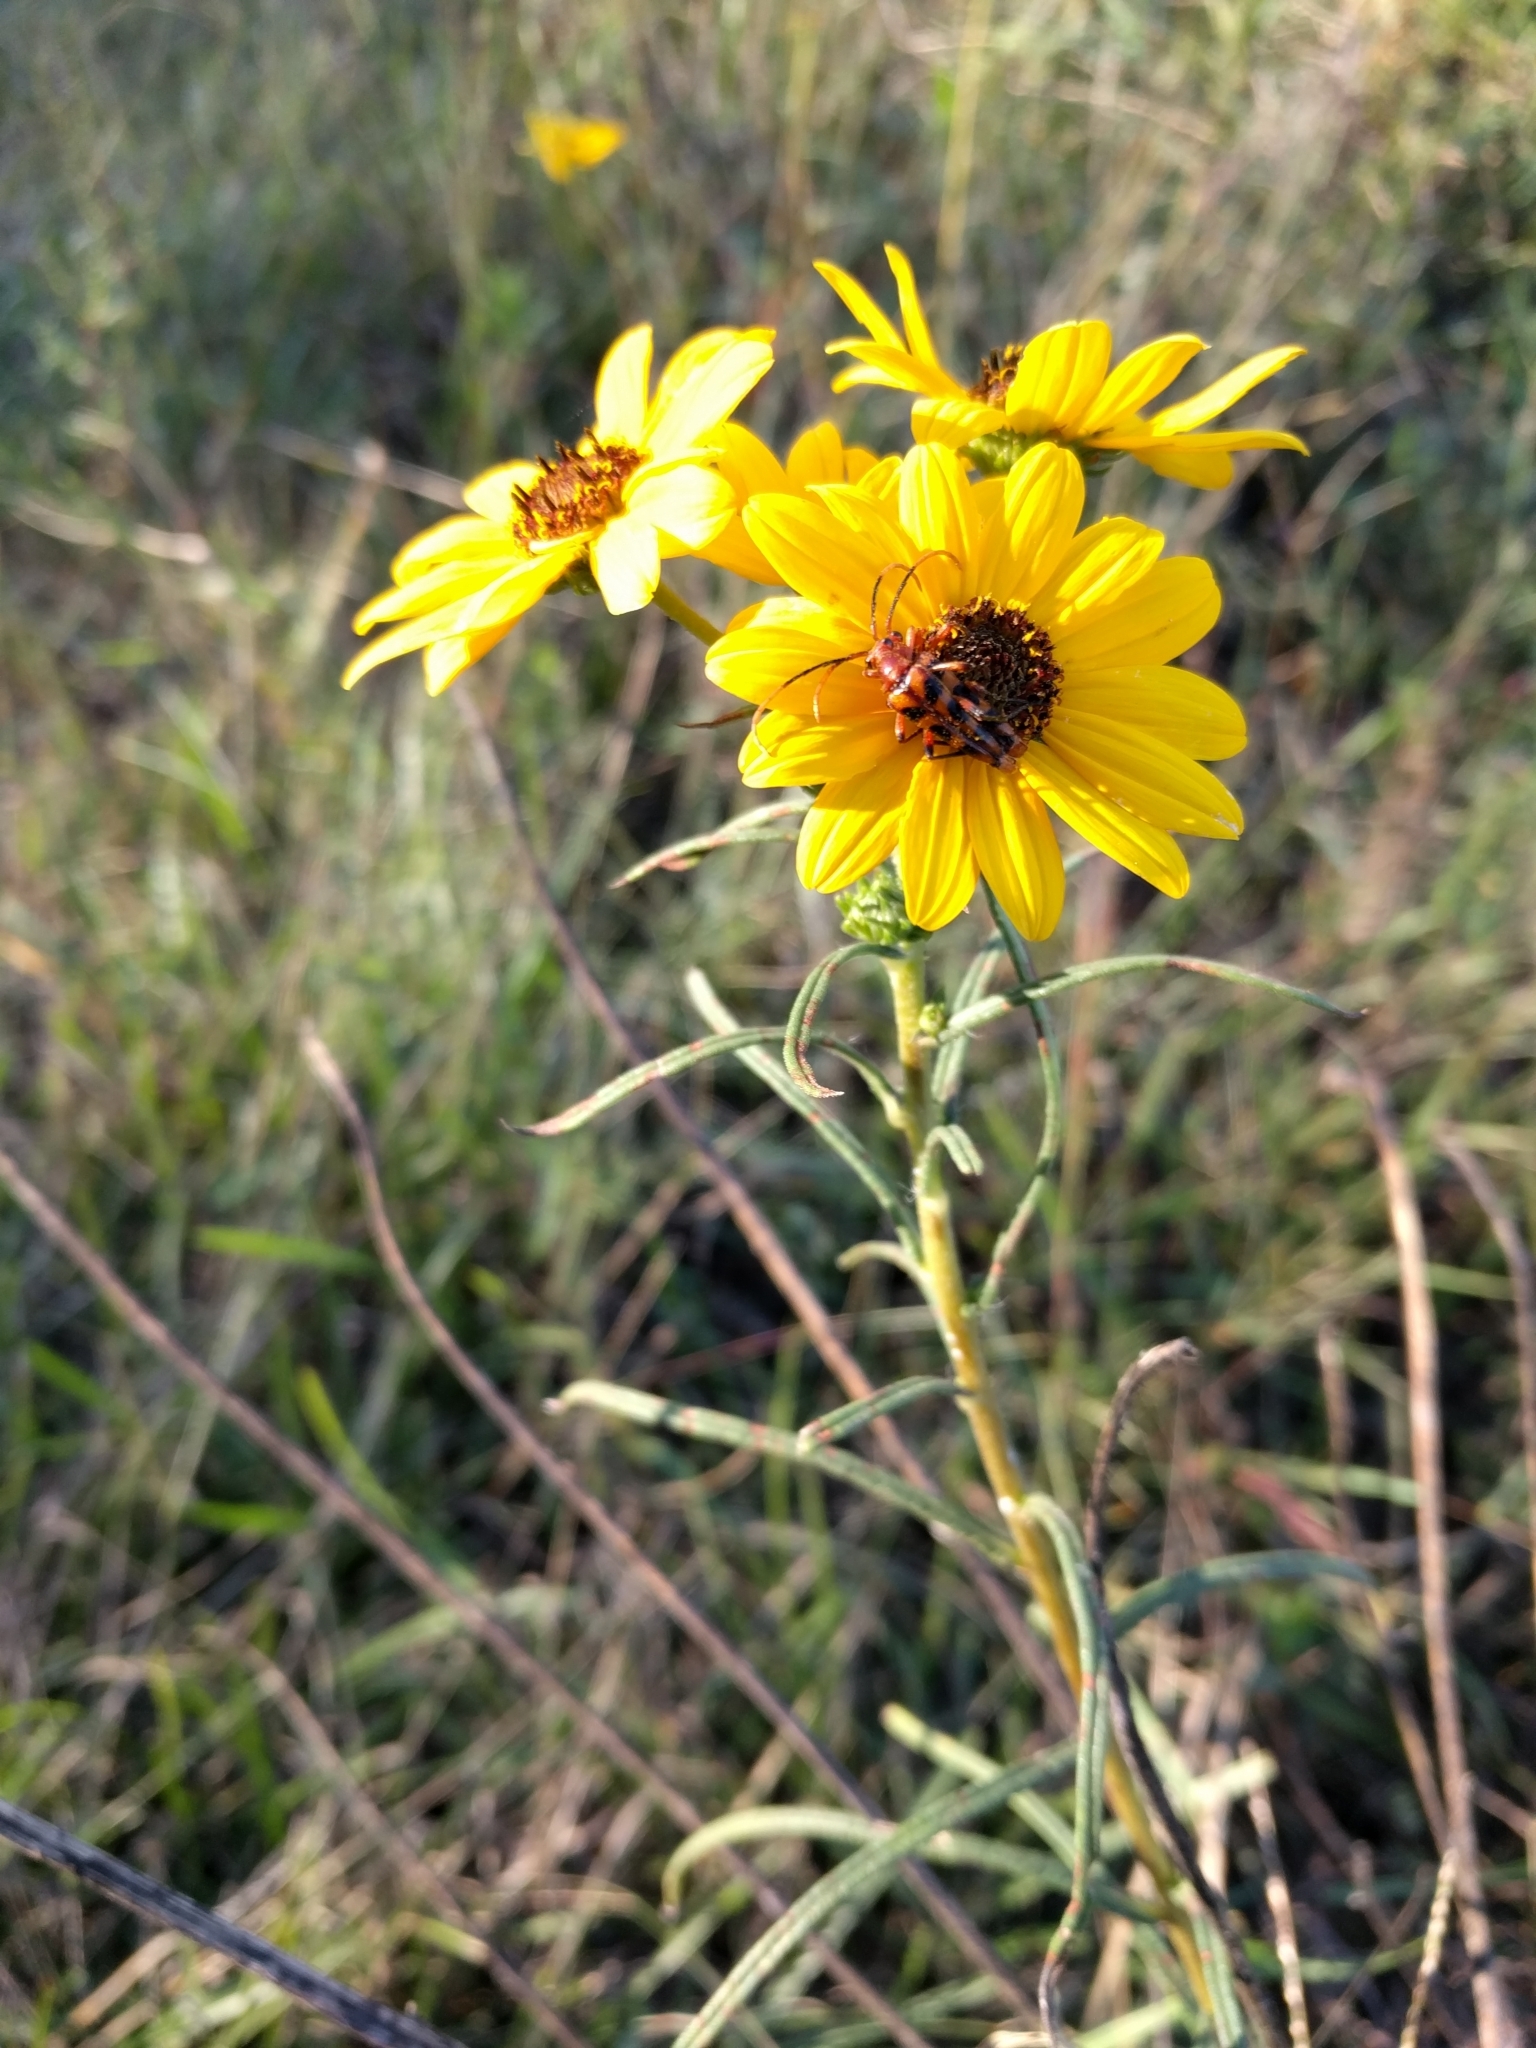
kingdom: Plantae
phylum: Tracheophyta
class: Magnoliopsida
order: Asterales
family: Asteraceae
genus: Helianthus
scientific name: Helianthus angustifolius
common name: Swamp sunflower
